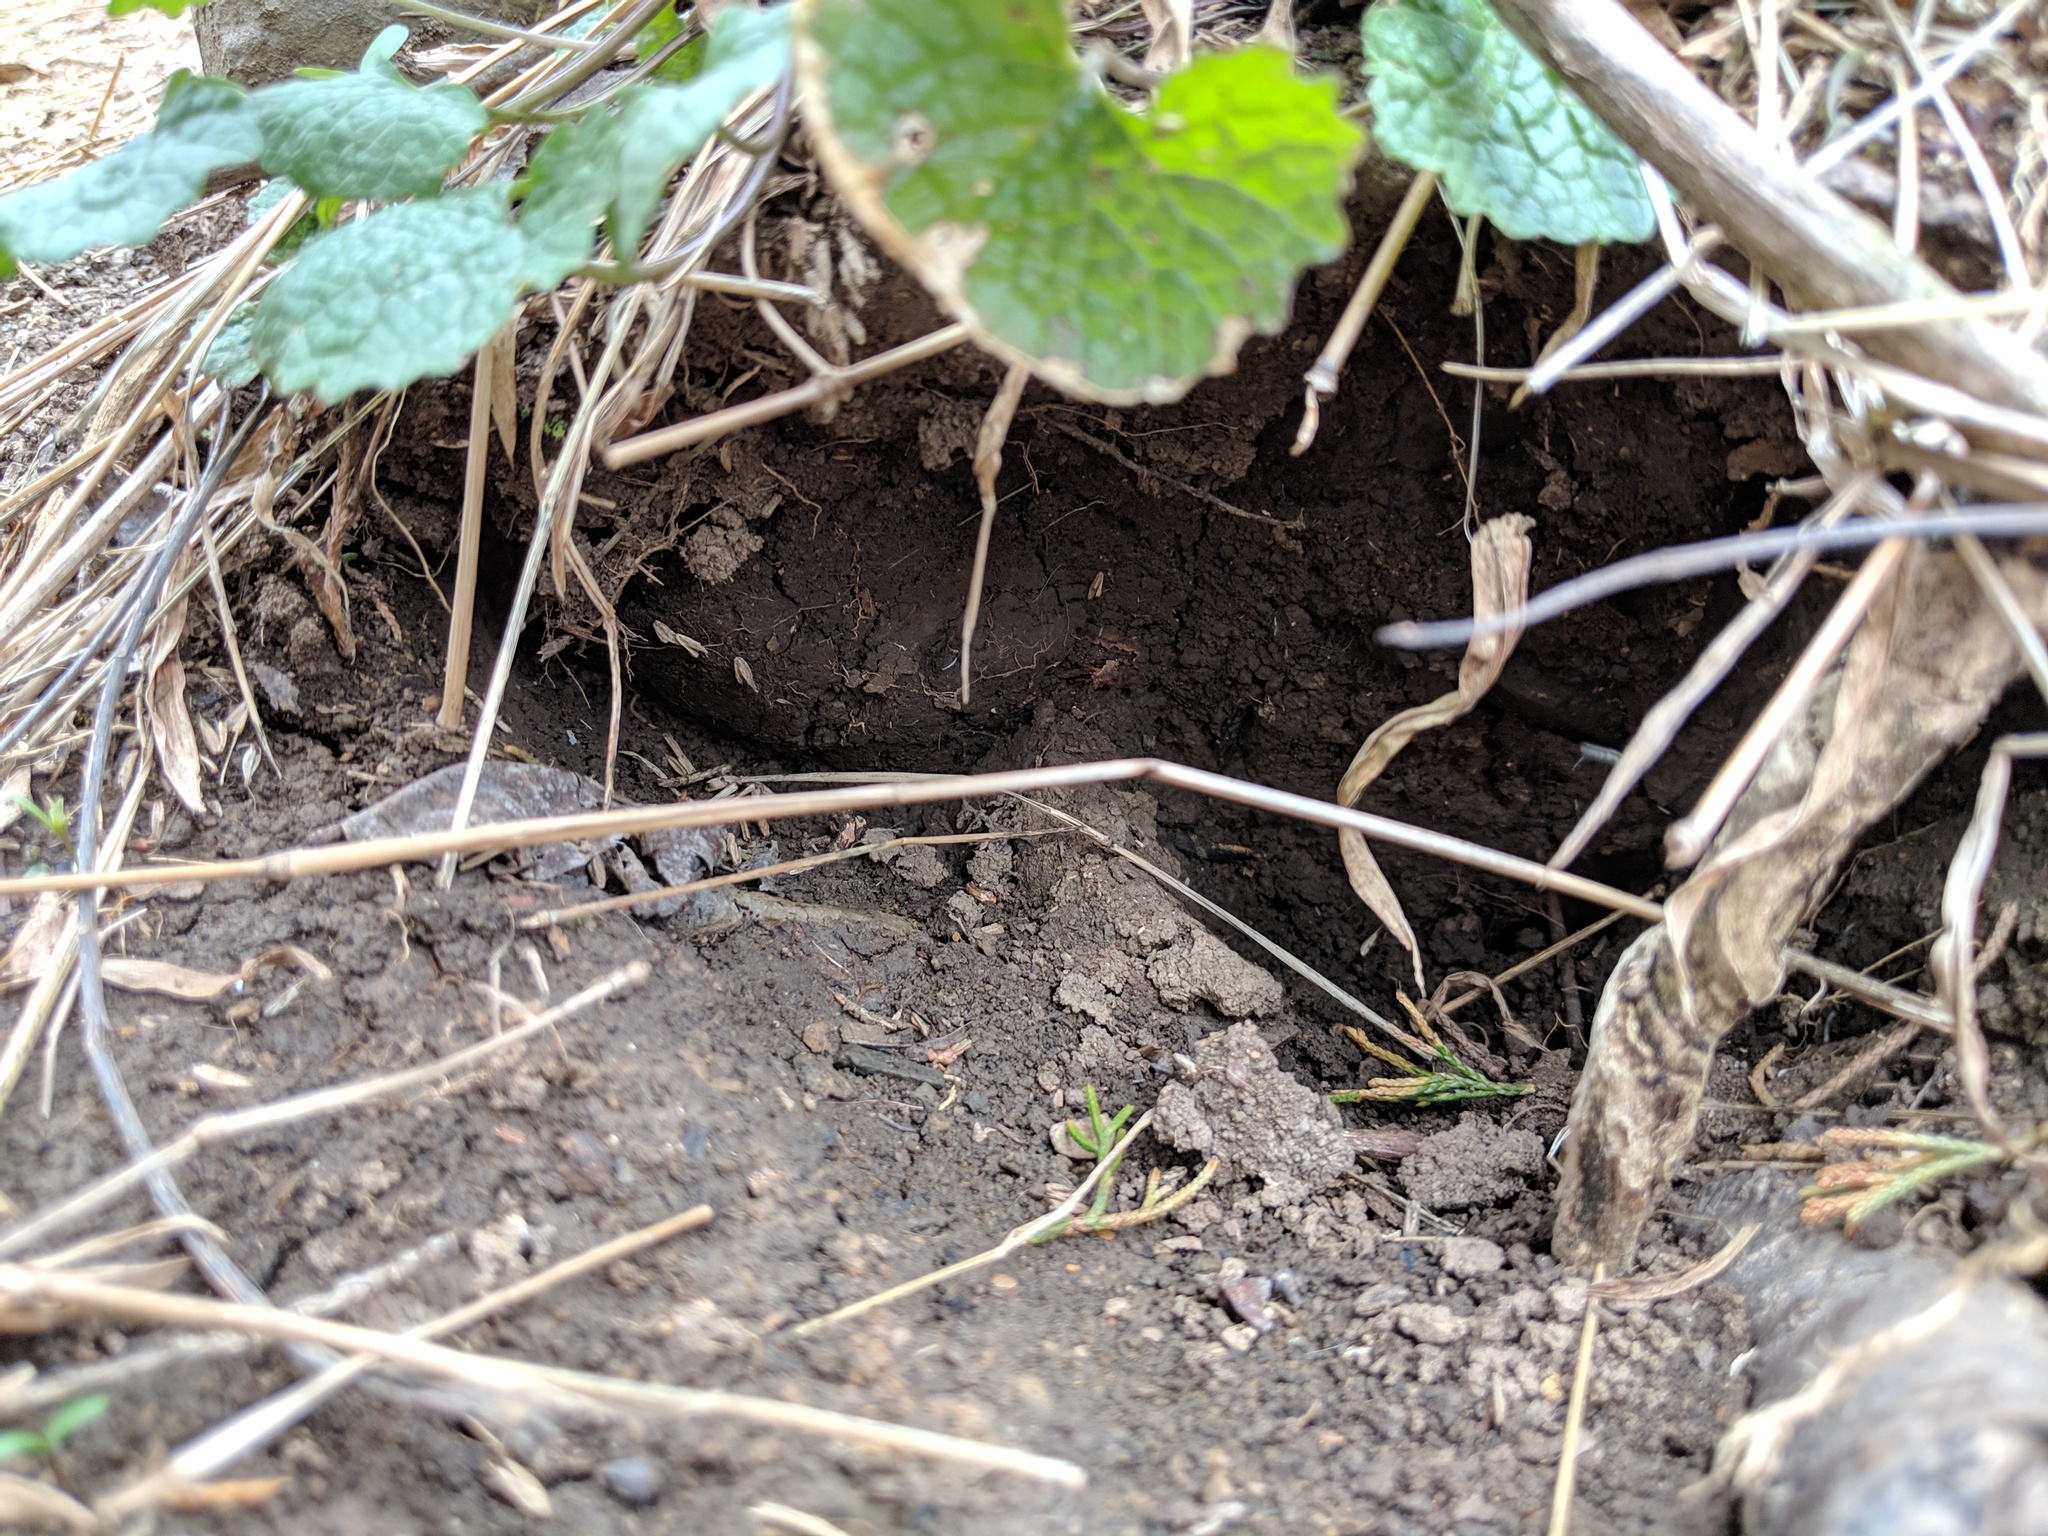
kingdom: Plantae
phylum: Tracheophyta
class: Magnoliopsida
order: Brassicales
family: Brassicaceae
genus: Alliaria
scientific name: Alliaria petiolata
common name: Garlic mustard
